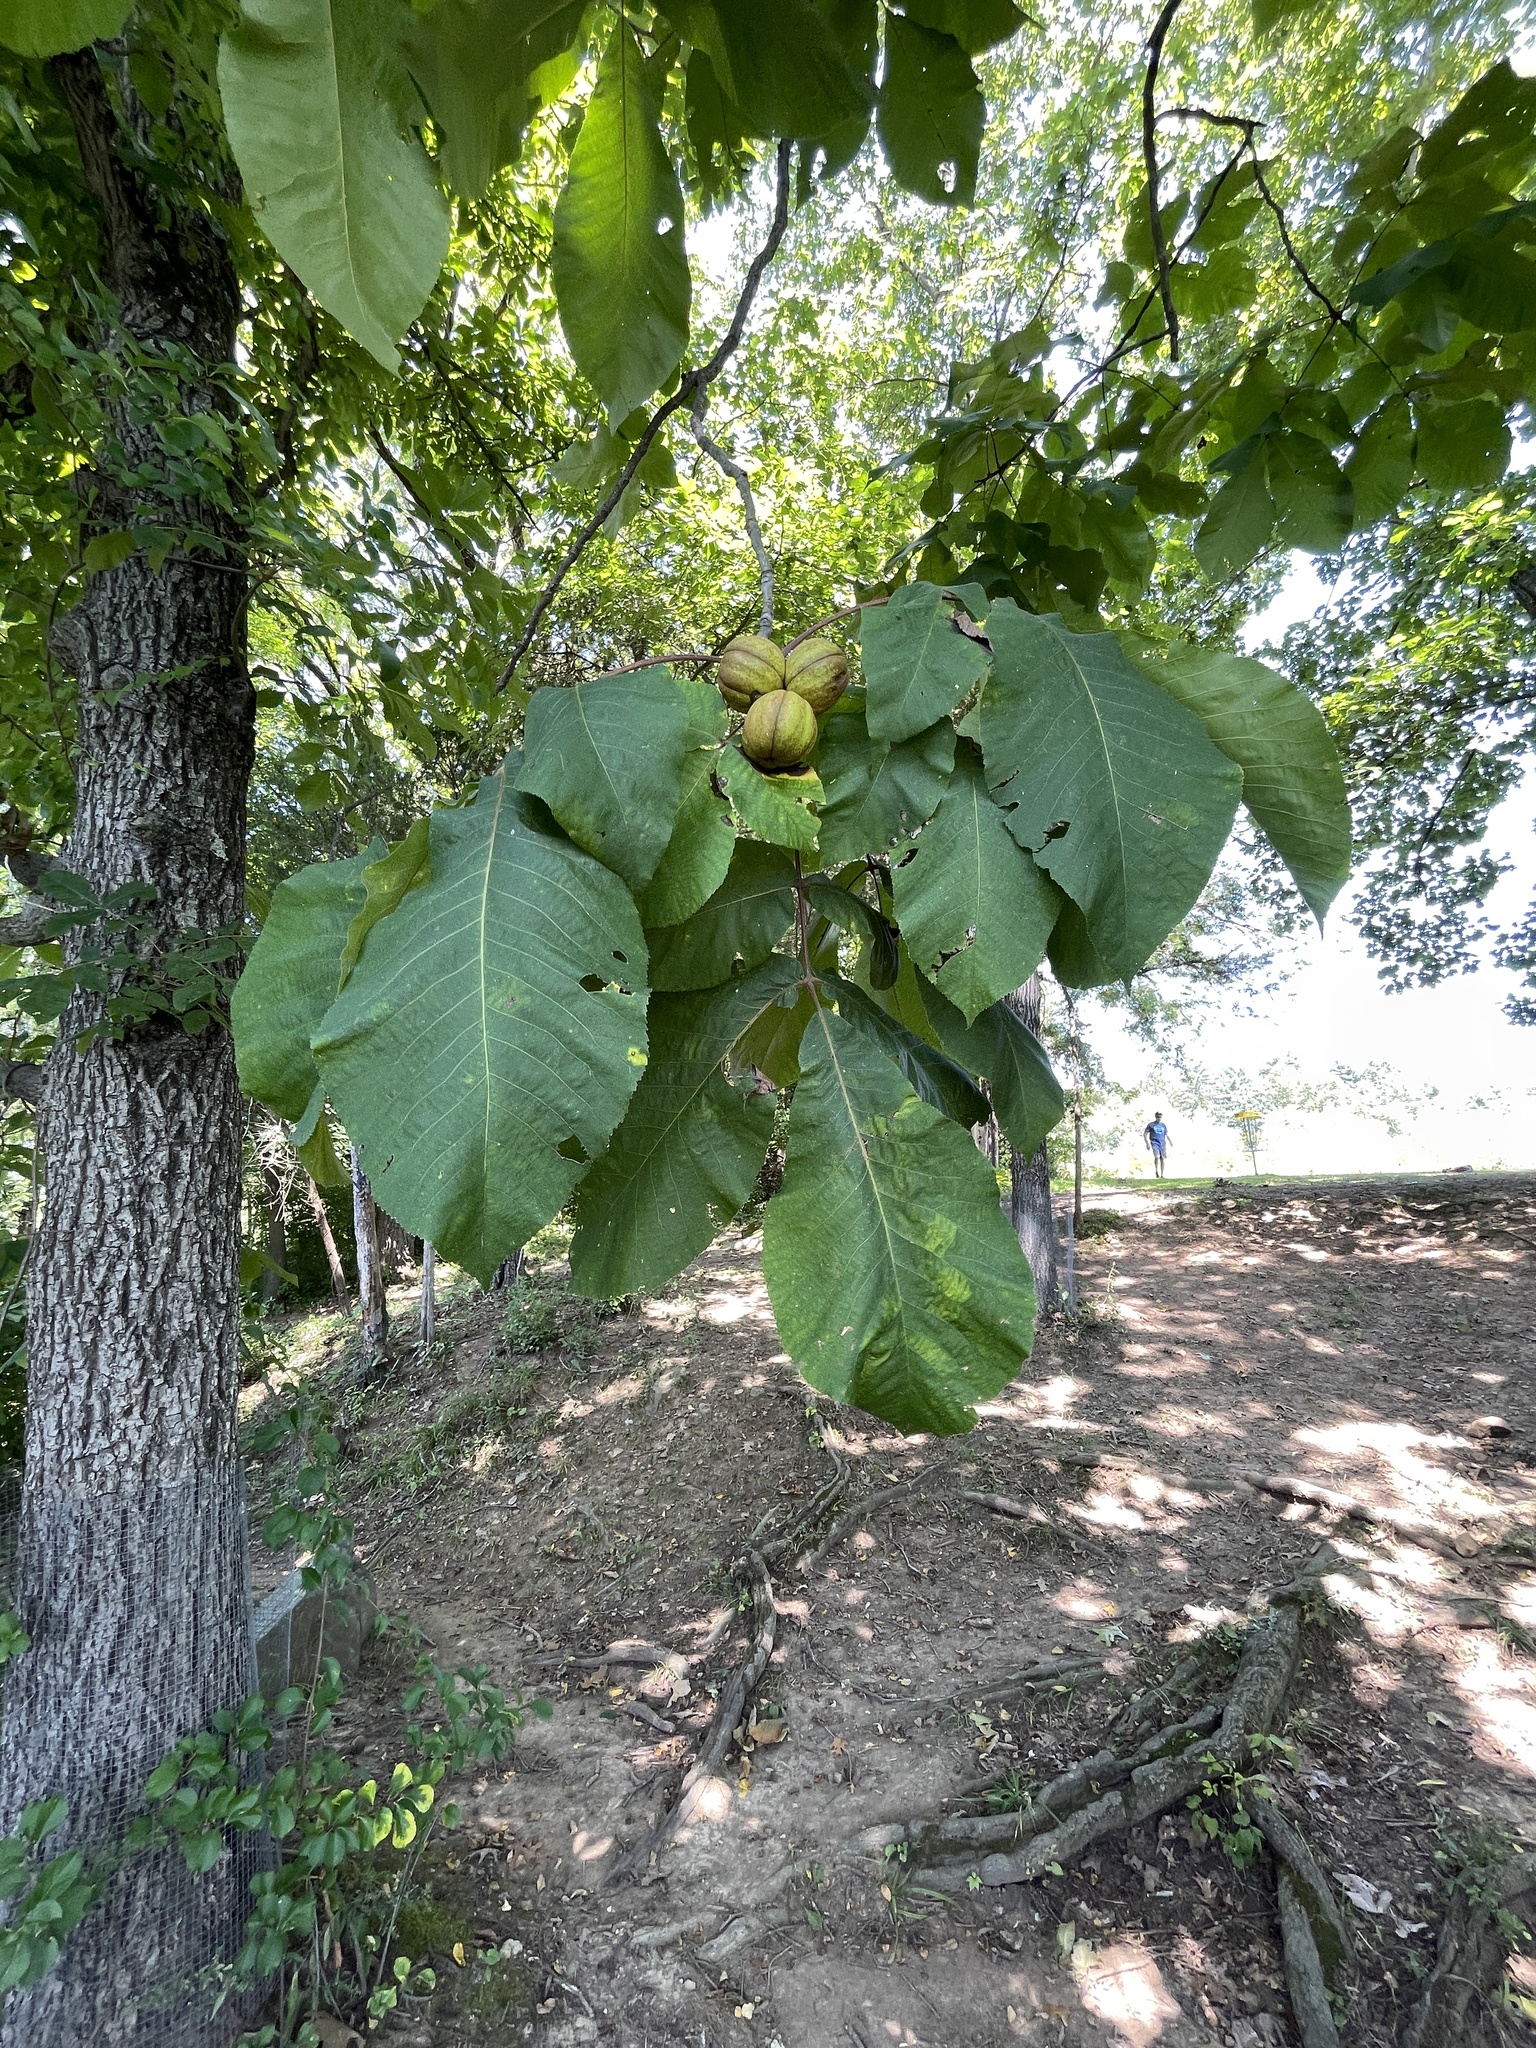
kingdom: Plantae
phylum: Tracheophyta
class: Magnoliopsida
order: Fagales
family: Juglandaceae
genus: Carya
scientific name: Carya ovata
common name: Shagbark hickory
